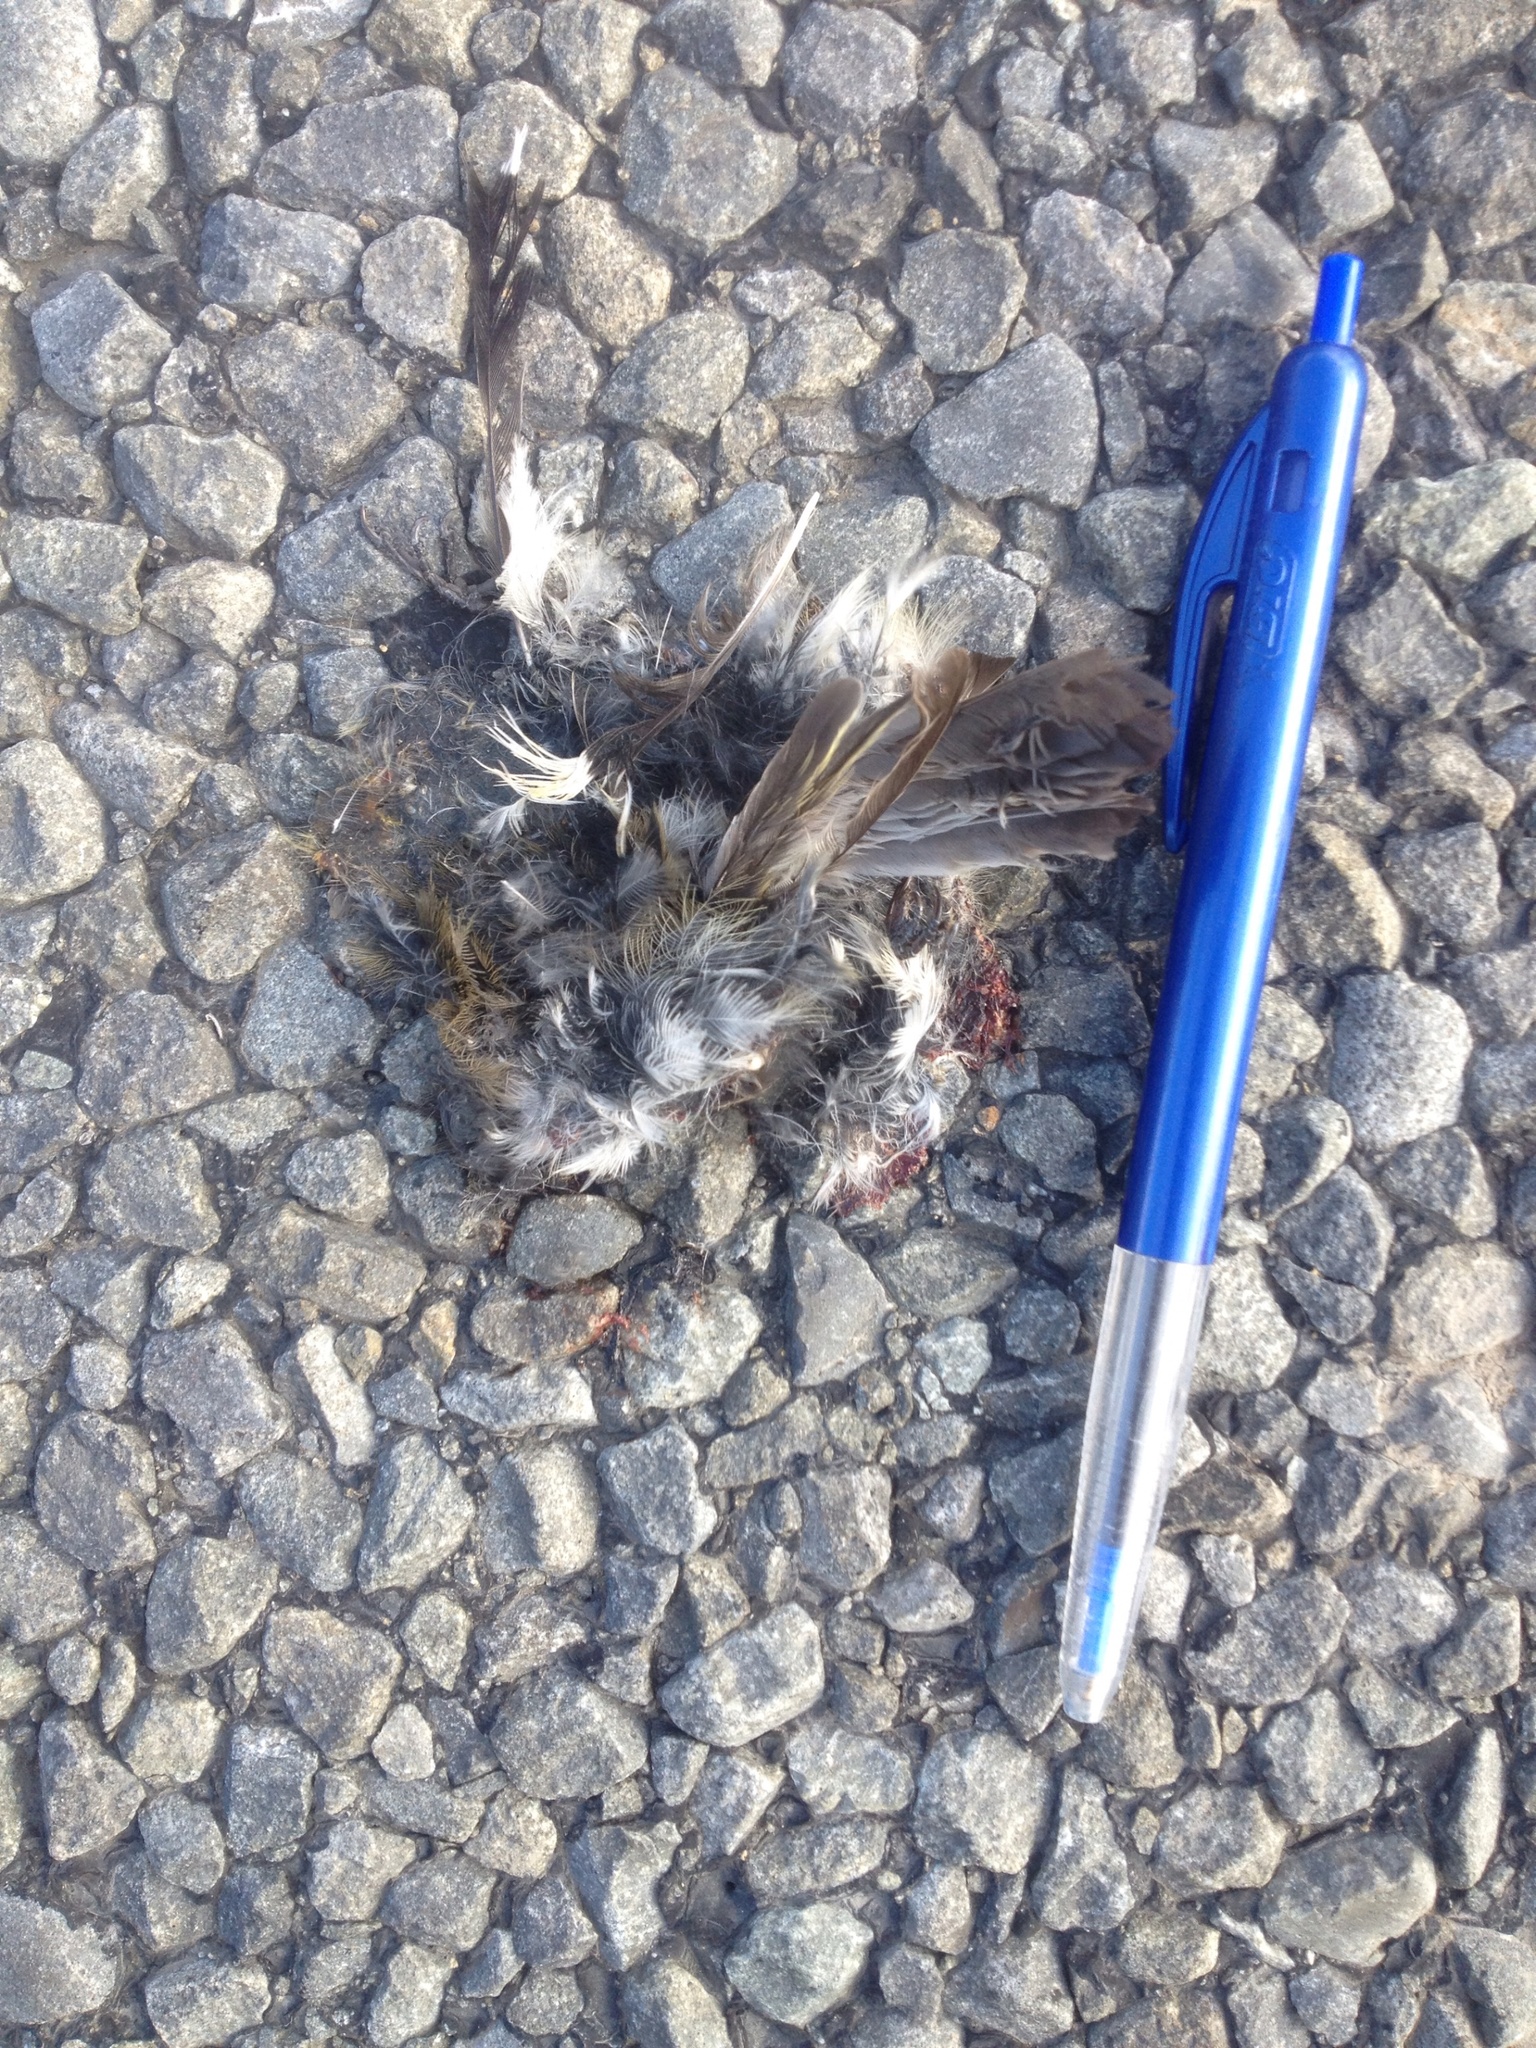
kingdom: Animalia
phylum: Chordata
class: Aves
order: Passeriformes
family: Acanthizidae
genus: Gerygone
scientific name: Gerygone igata
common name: Grey gerygone
